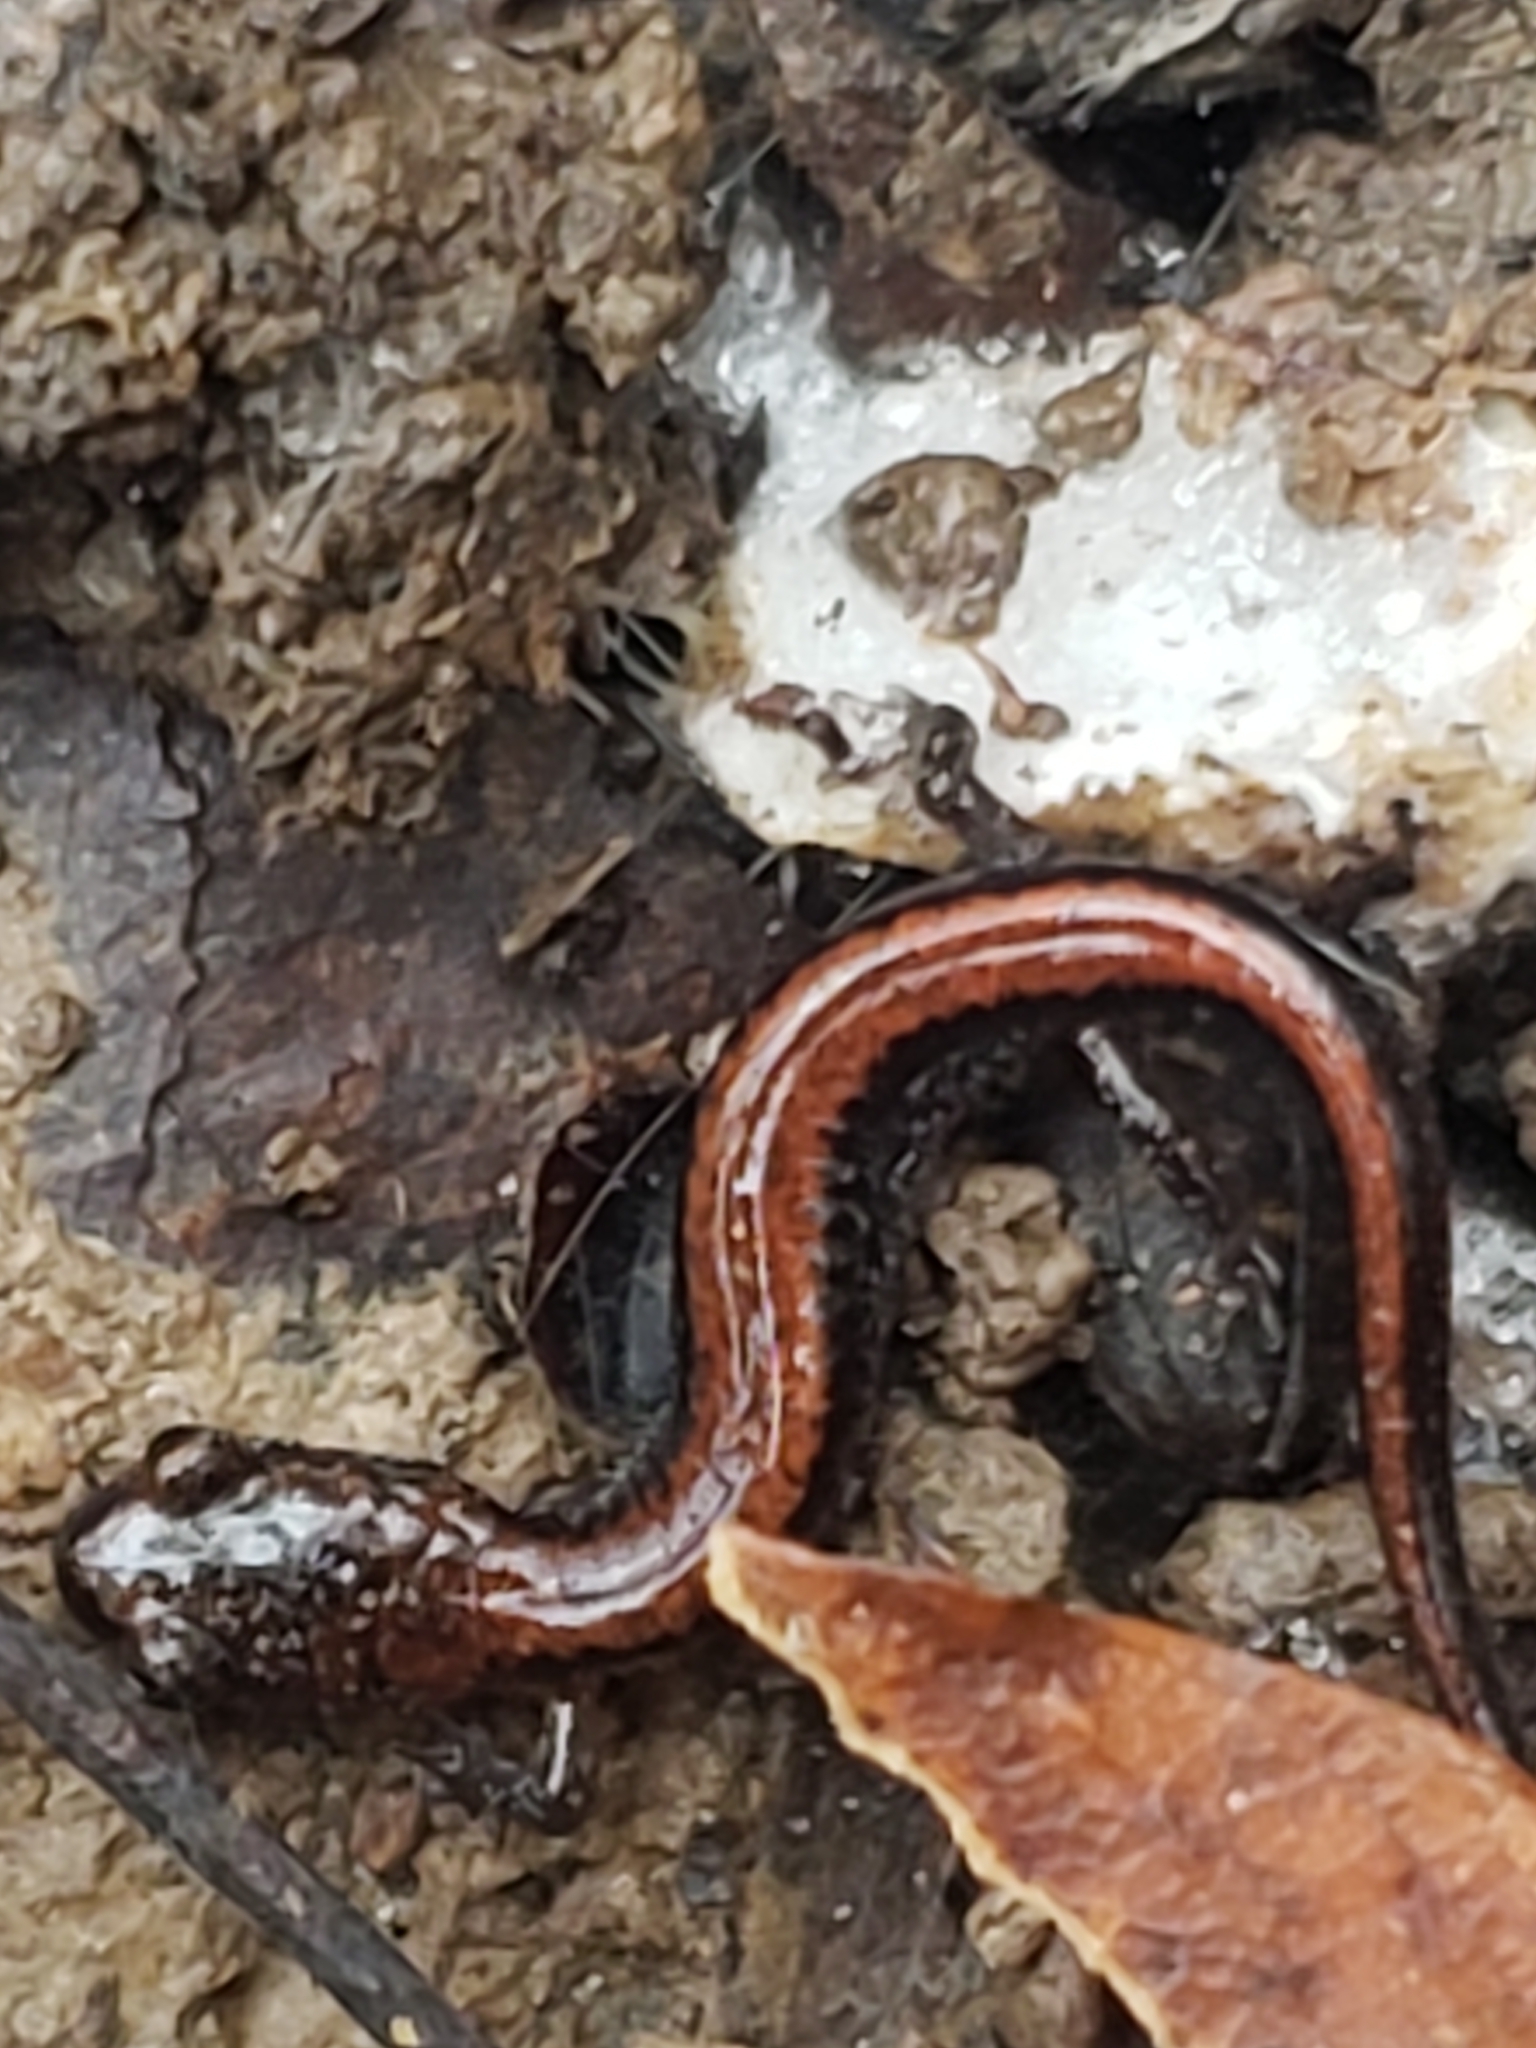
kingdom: Animalia
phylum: Chordata
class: Amphibia
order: Caudata
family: Plethodontidae
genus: Plethodon
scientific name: Plethodon cinereus
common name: Redback salamander
